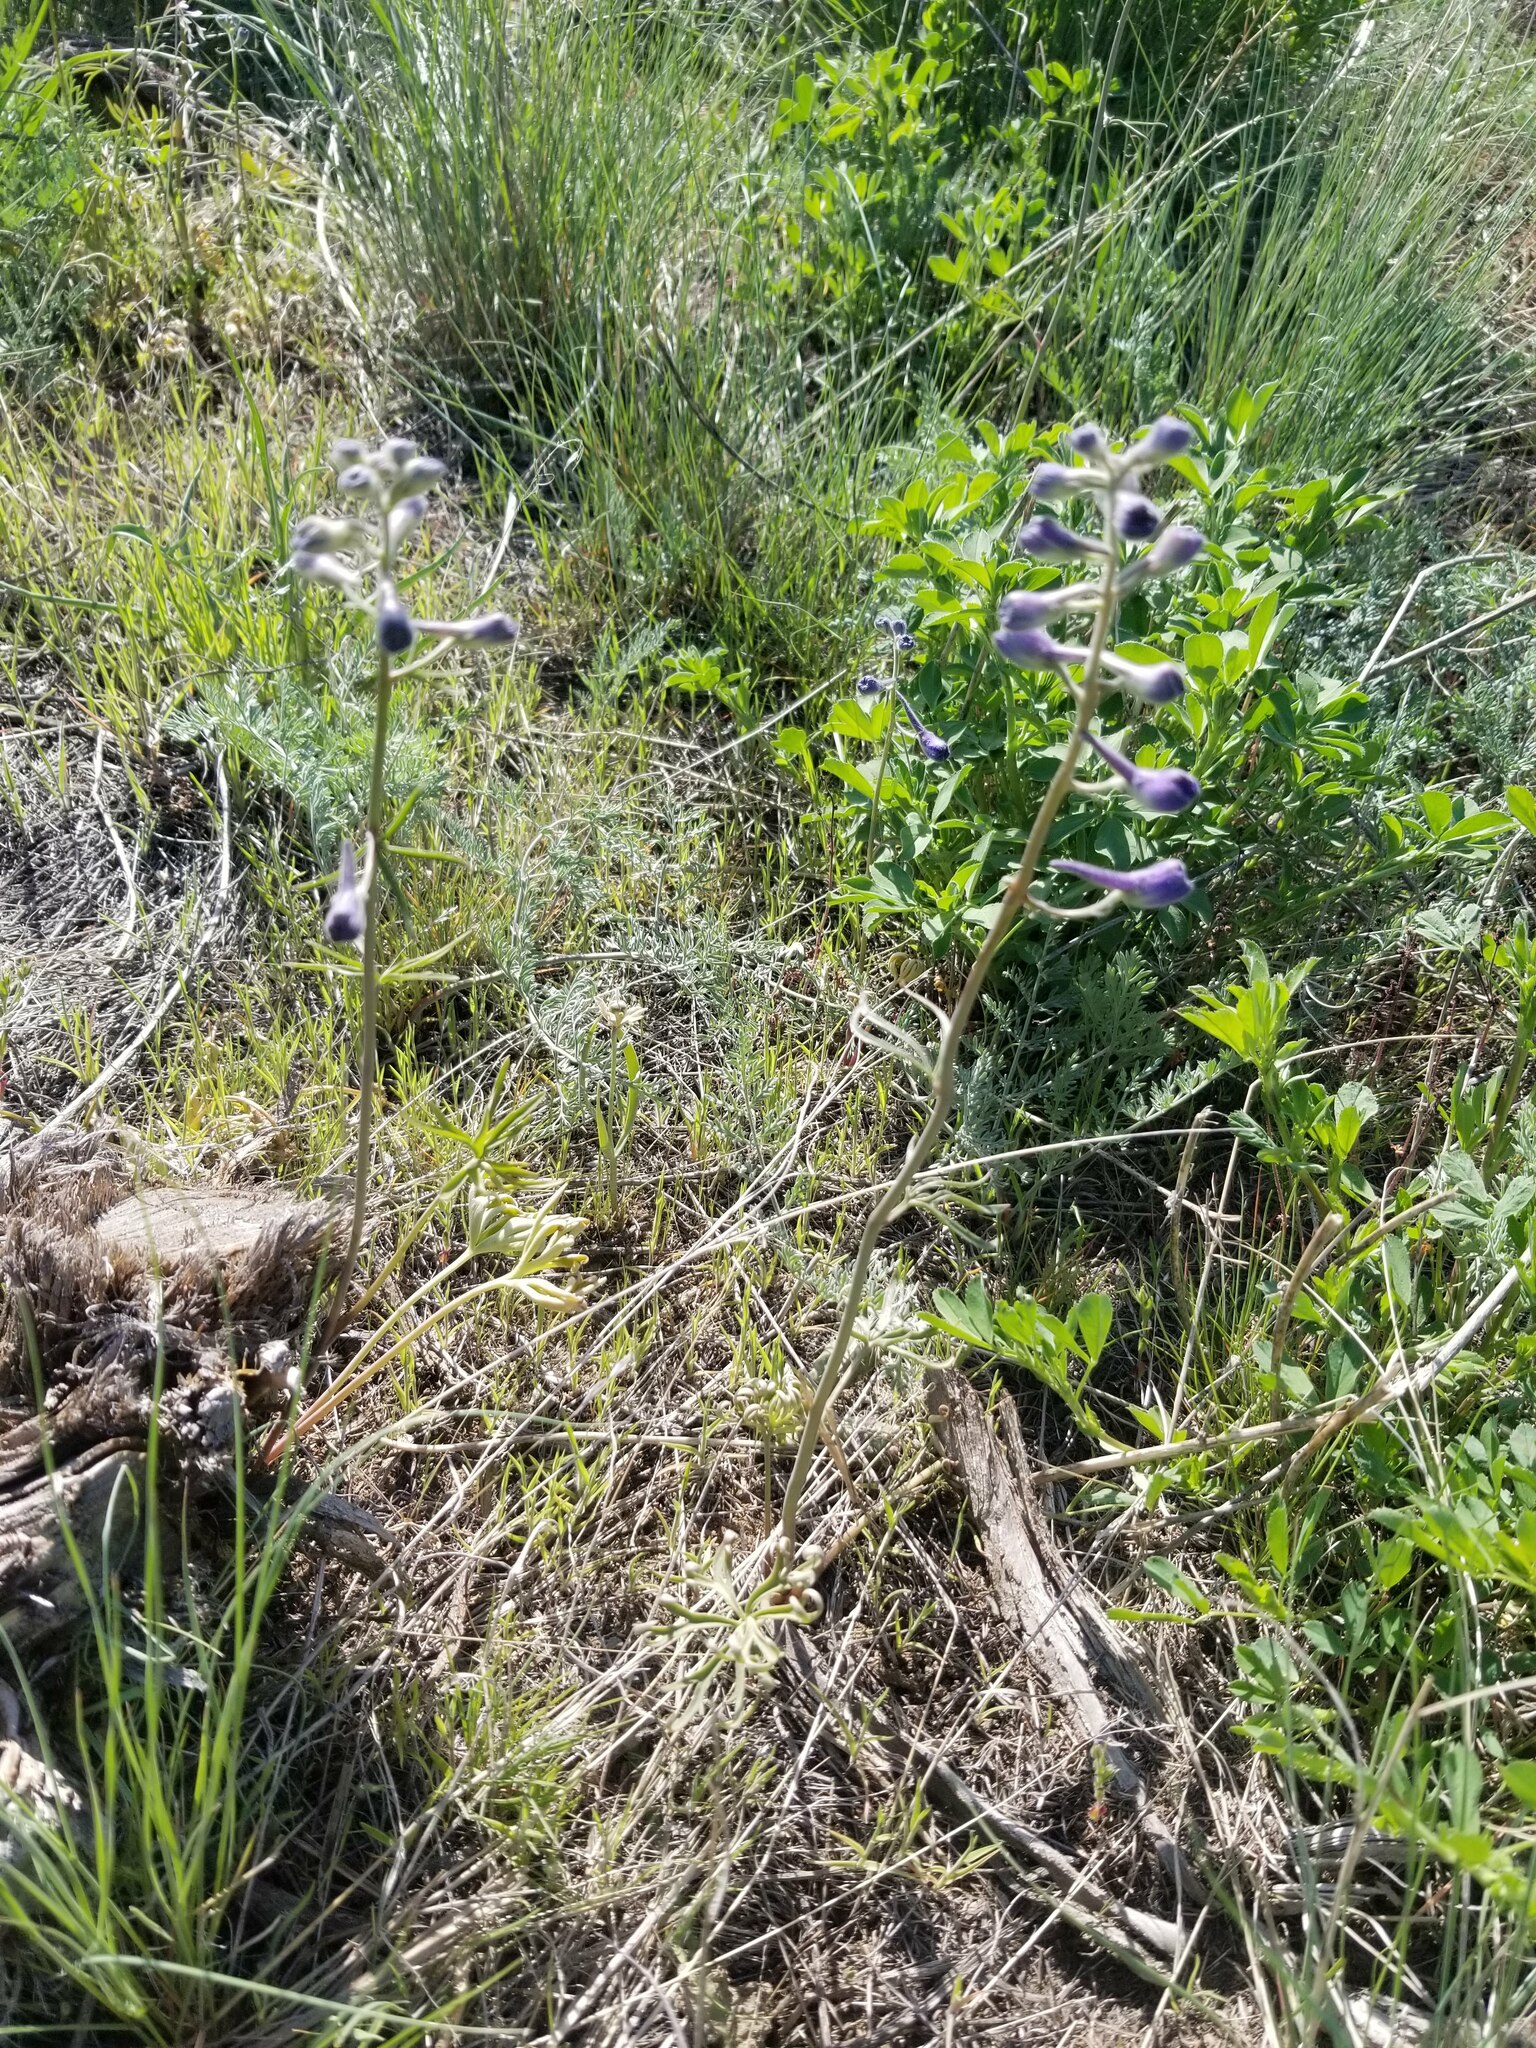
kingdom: Plantae
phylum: Tracheophyta
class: Magnoliopsida
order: Ranunculales
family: Ranunculaceae
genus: Delphinium
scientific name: Delphinium nuttallianum
